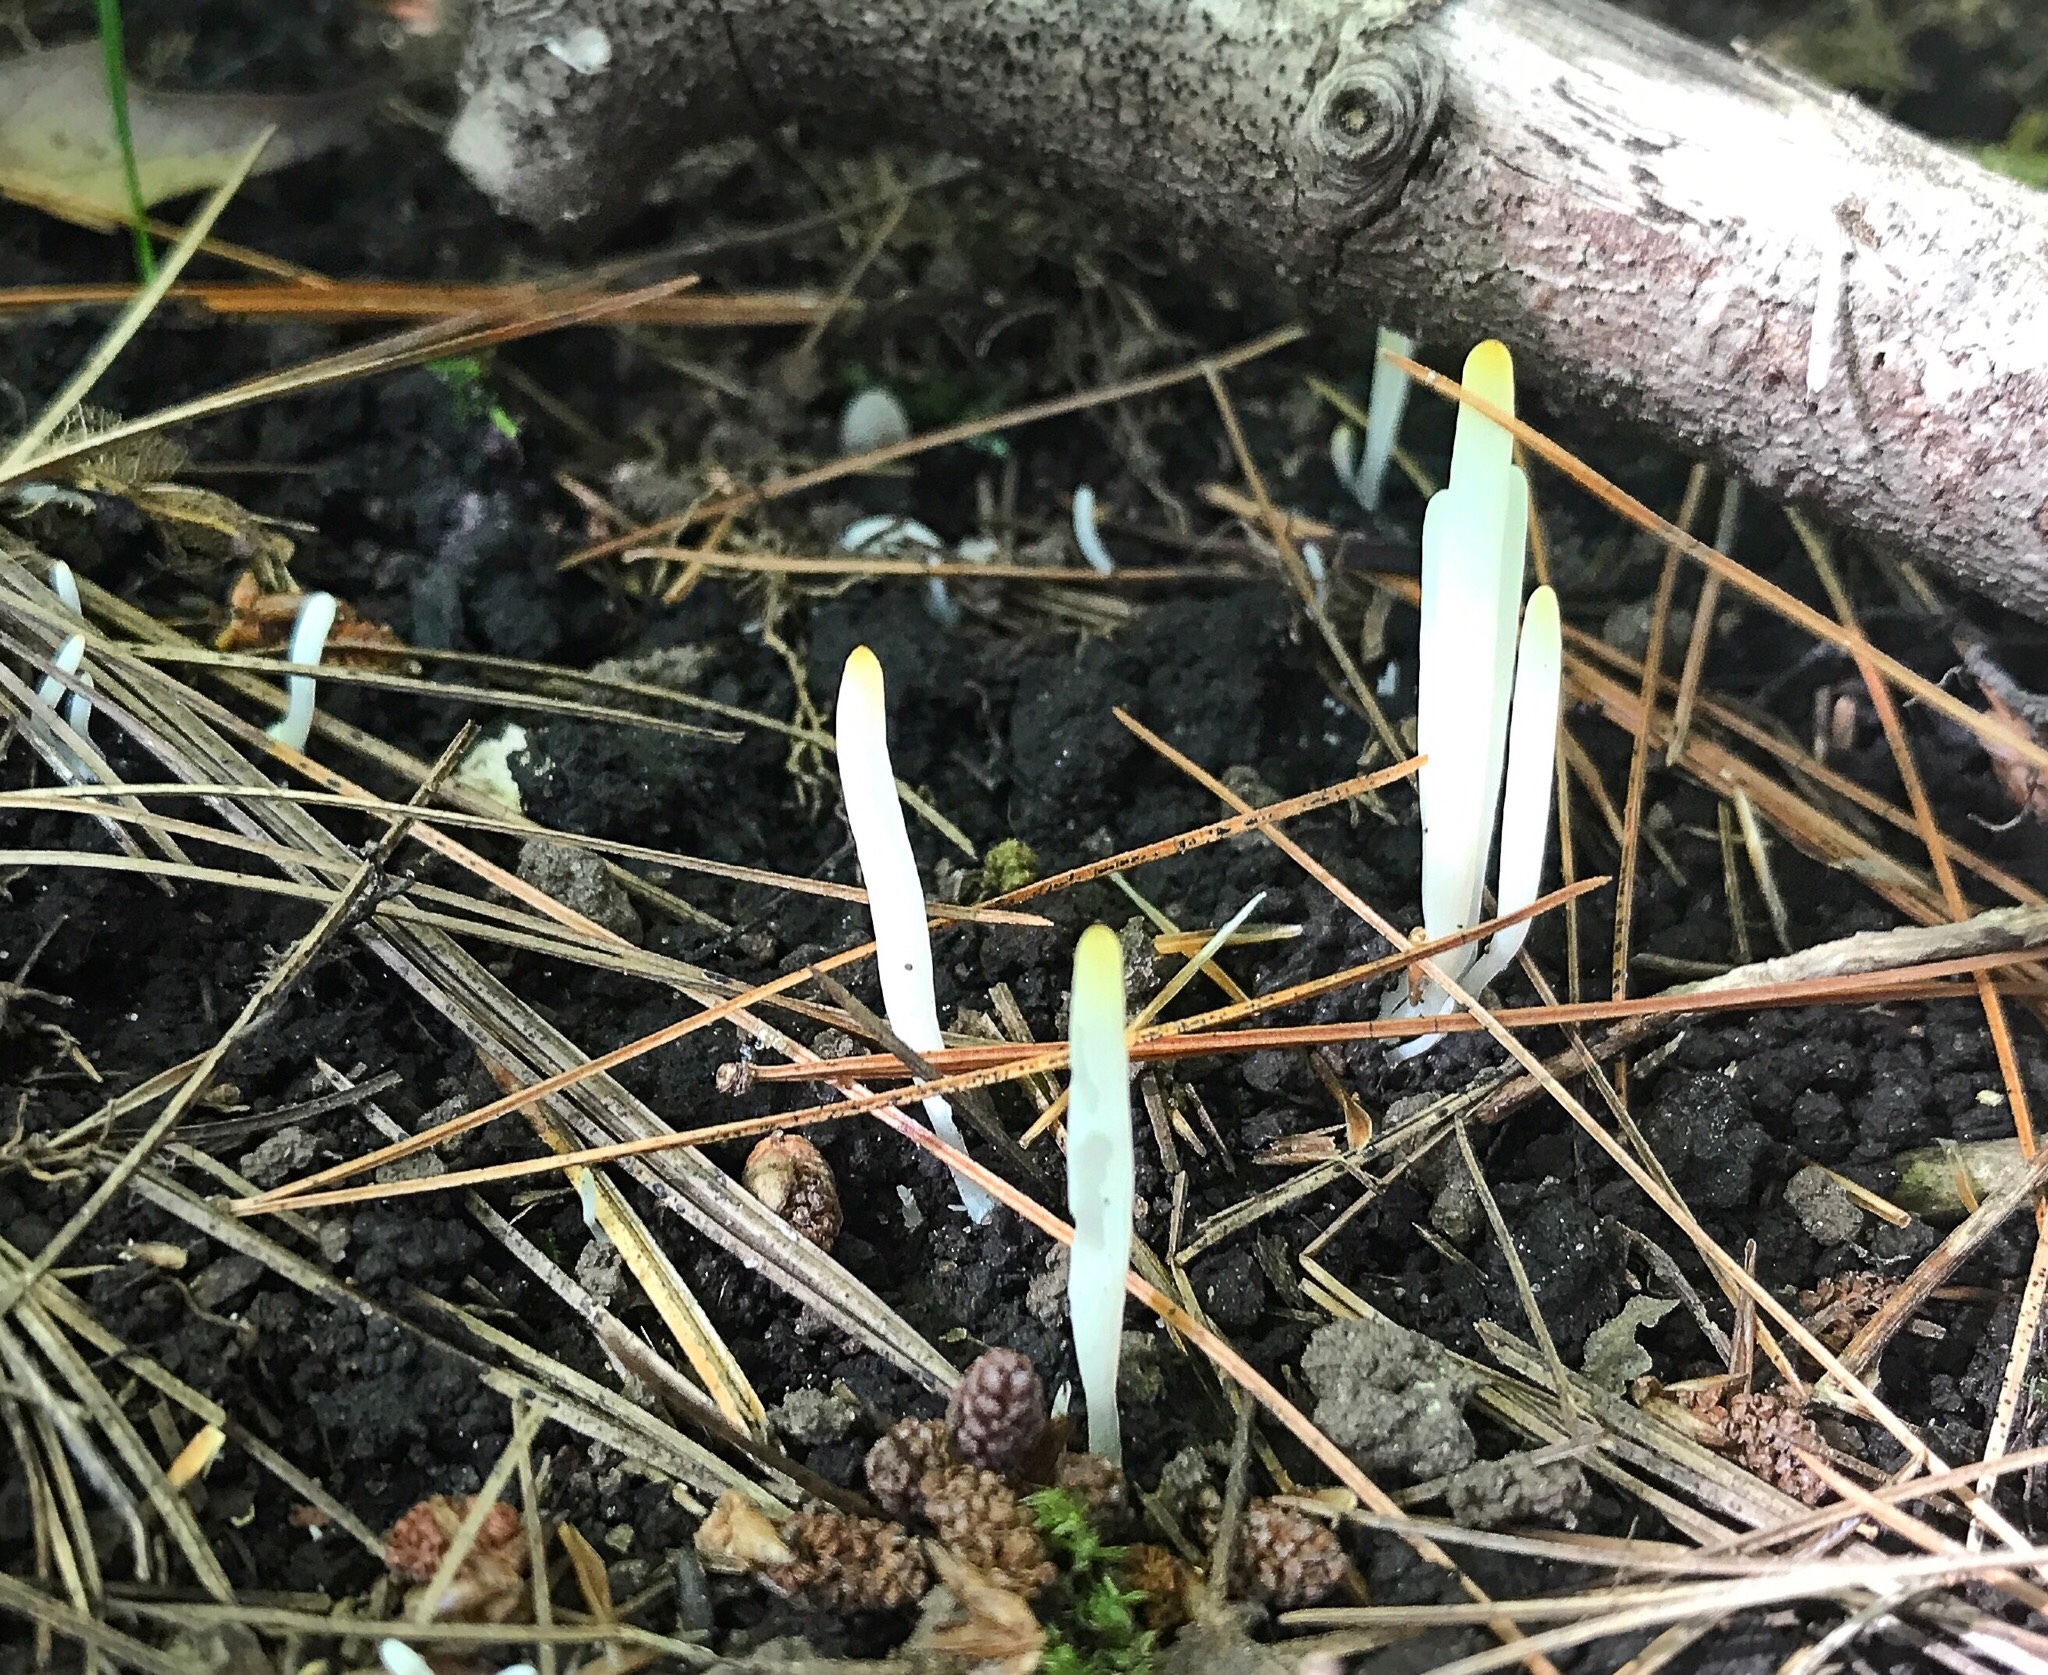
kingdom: Fungi
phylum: Basidiomycota
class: Agaricomycetes
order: Agaricales
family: Clavariaceae
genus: Clavaria
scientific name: Clavaria fragilis
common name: White spindles
